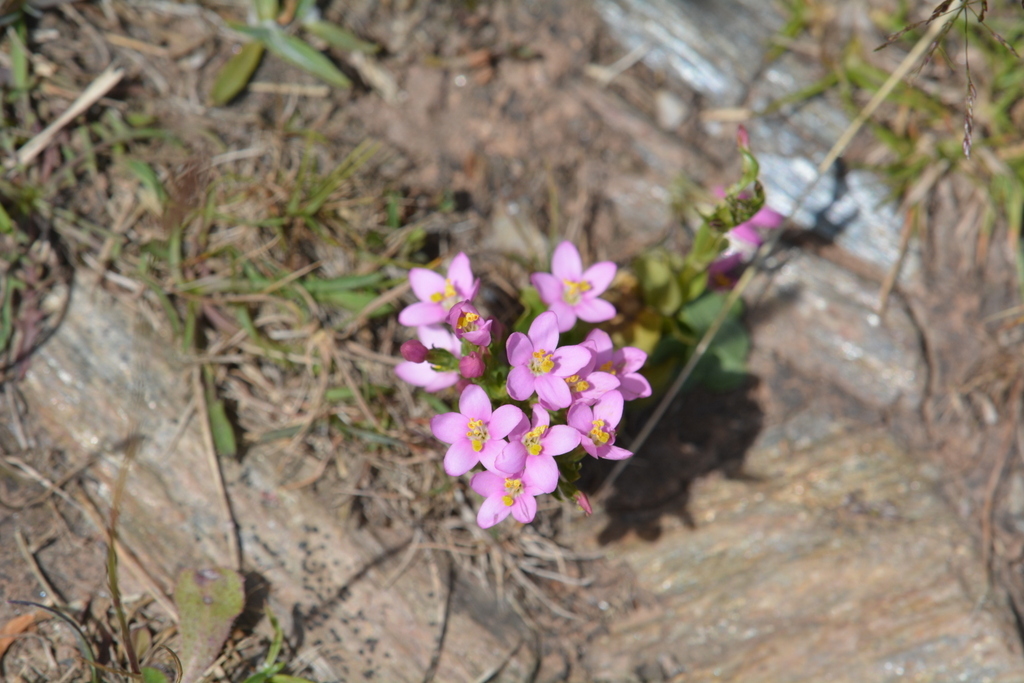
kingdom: Plantae
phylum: Tracheophyta
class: Magnoliopsida
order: Gentianales
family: Gentianaceae
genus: Centaurium
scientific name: Centaurium erythraea
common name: Common centaury
